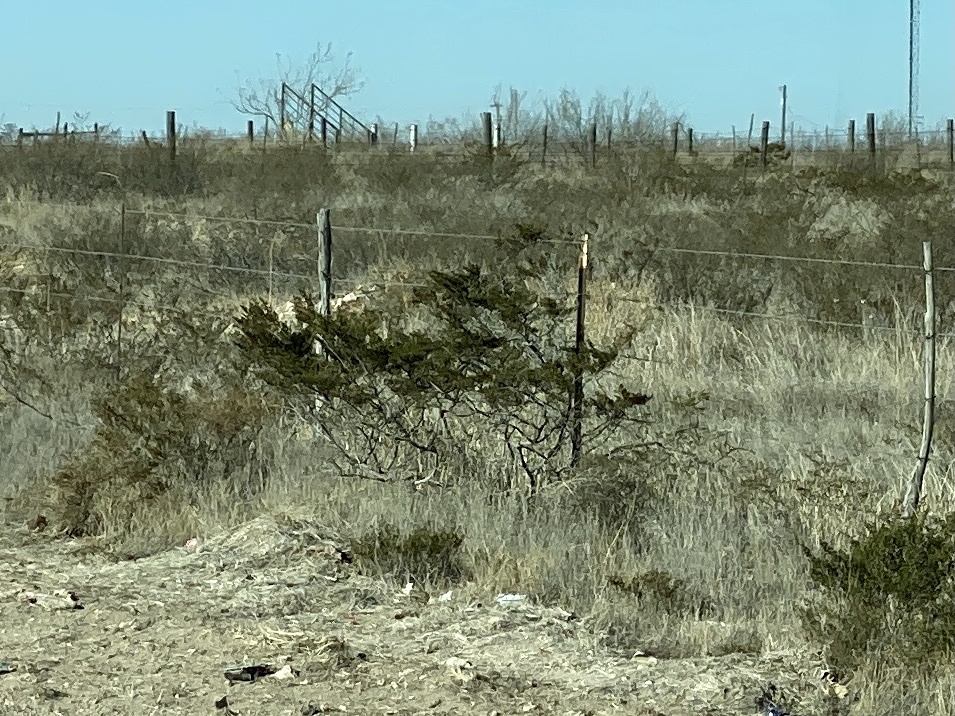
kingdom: Plantae
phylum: Tracheophyta
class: Magnoliopsida
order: Zygophyllales
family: Zygophyllaceae
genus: Larrea
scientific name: Larrea tridentata
